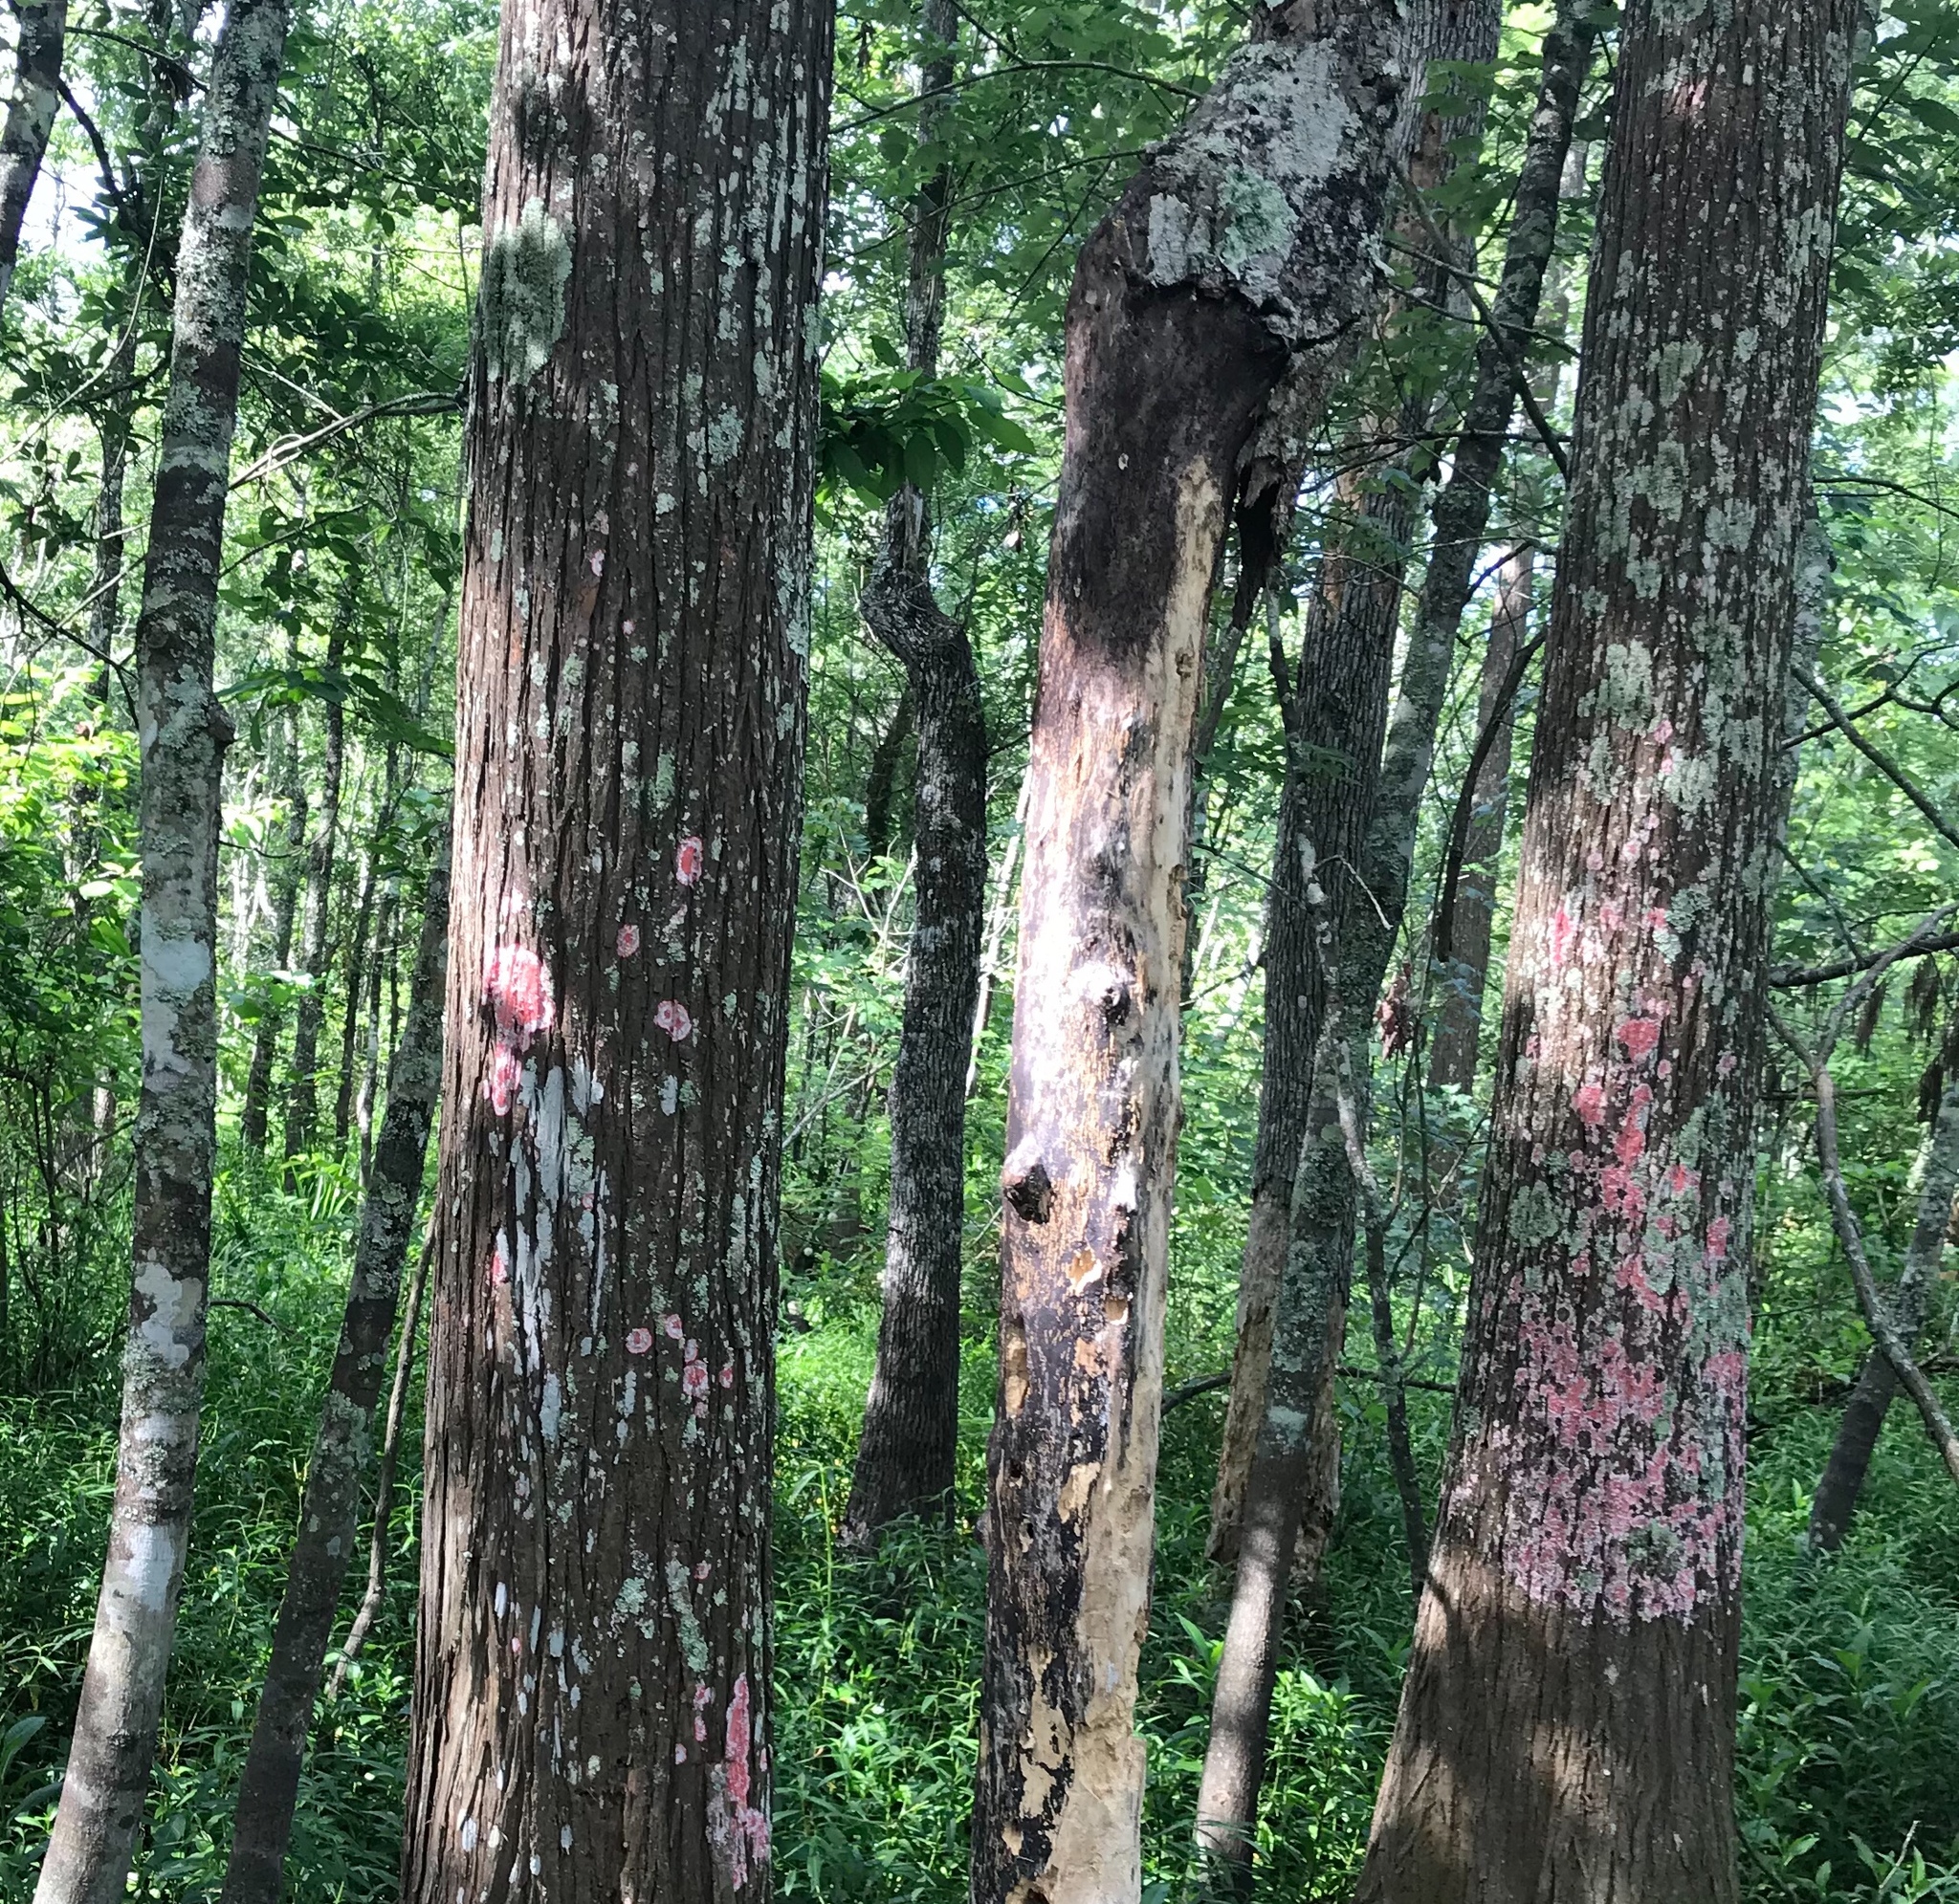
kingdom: Fungi
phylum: Ascomycota
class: Arthoniomycetes
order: Arthoniales
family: Arthoniaceae
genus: Herpothallon
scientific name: Herpothallon rubrocinctum
